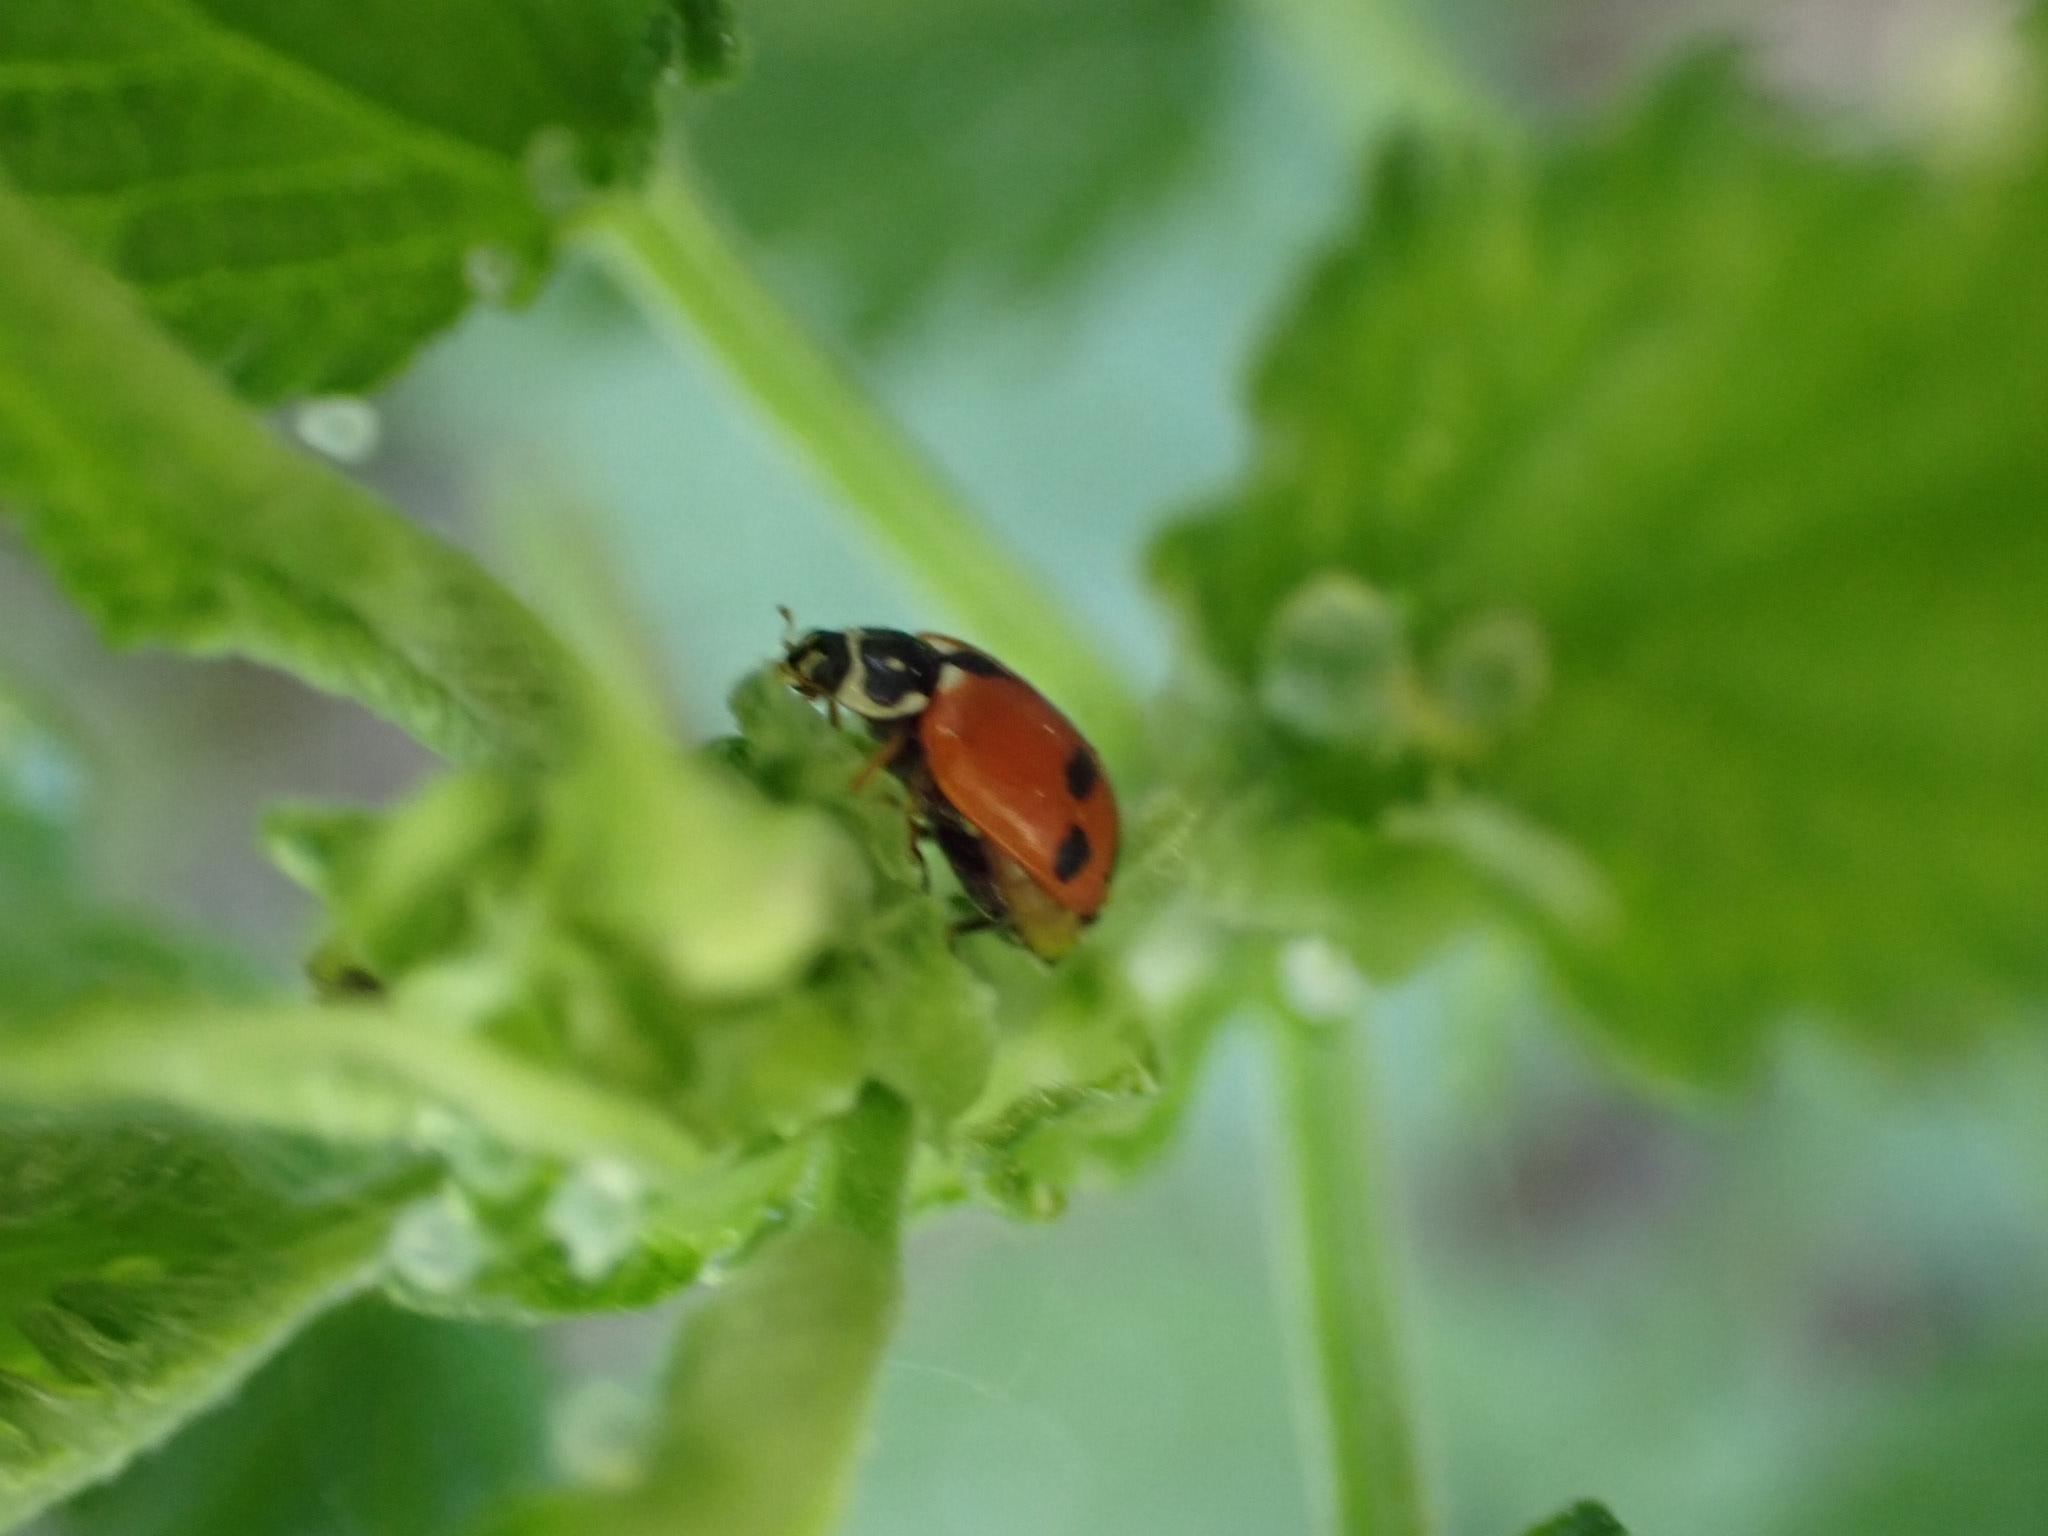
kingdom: Animalia
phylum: Arthropoda
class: Insecta
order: Coleoptera
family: Coccinellidae
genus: Hippodamia
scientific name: Hippodamia variegata
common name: Ladybird beetle
